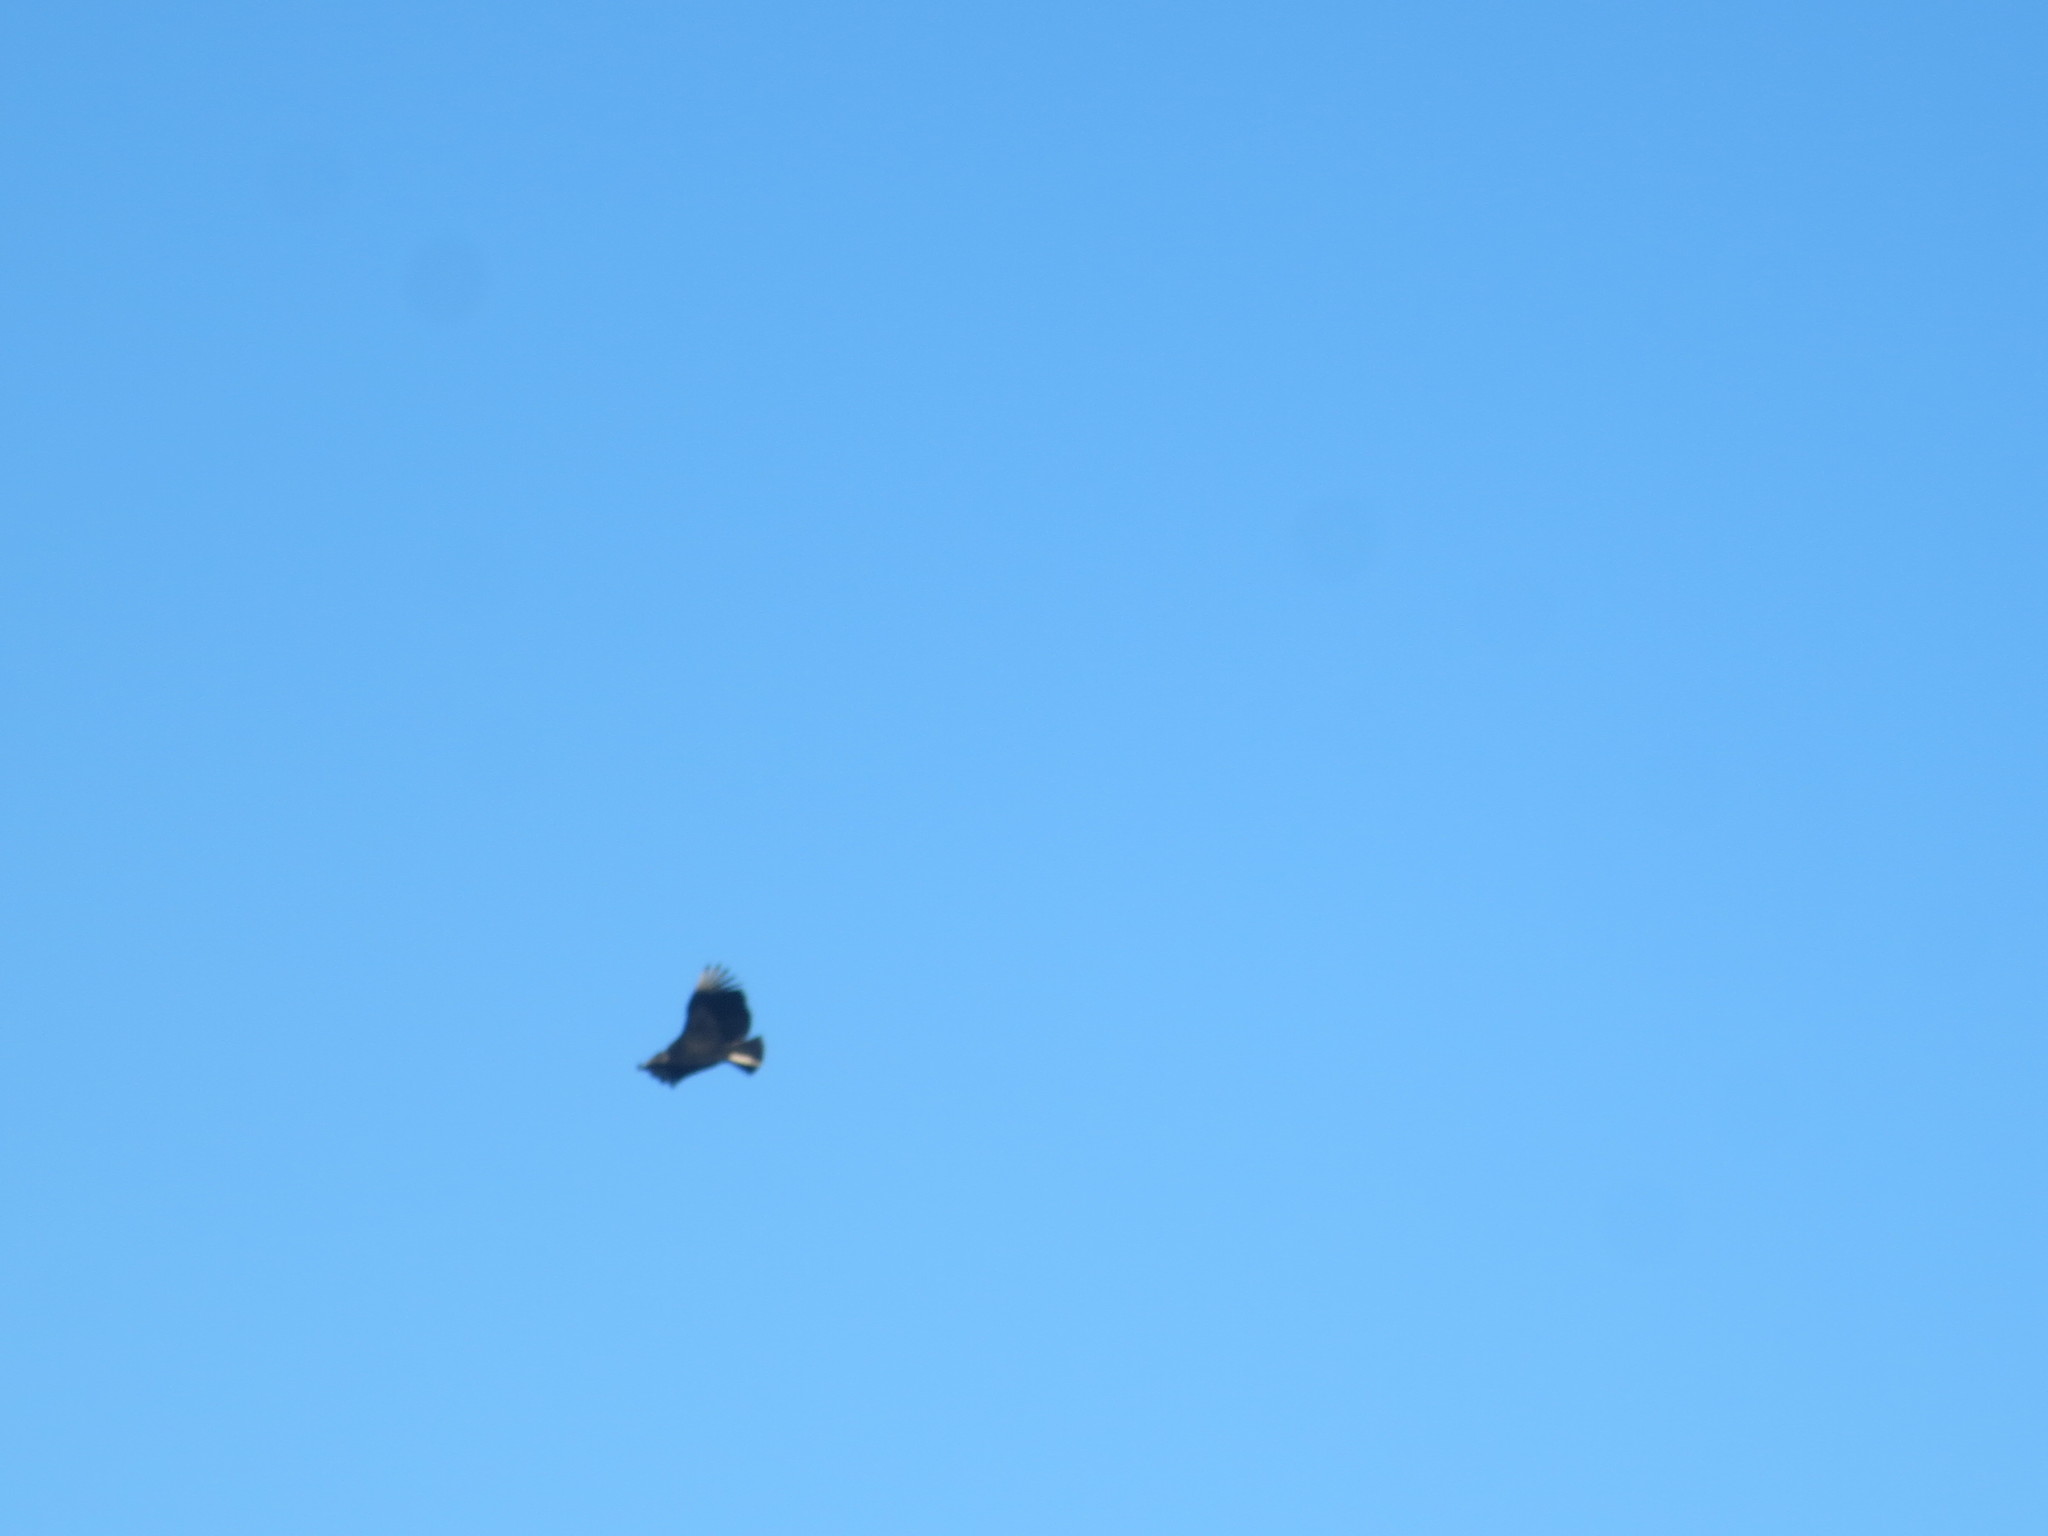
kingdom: Animalia
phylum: Chordata
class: Aves
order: Accipitriformes
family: Cathartidae
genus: Coragyps
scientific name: Coragyps atratus
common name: Black vulture
